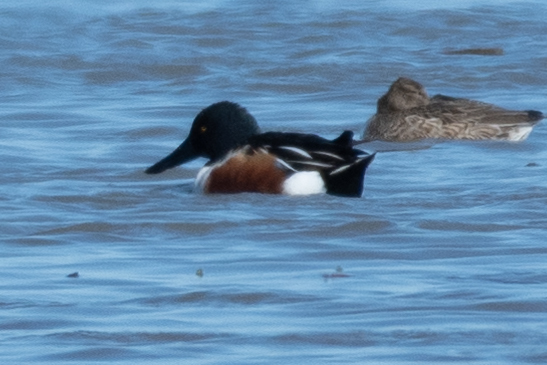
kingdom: Animalia
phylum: Chordata
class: Aves
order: Anseriformes
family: Anatidae
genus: Spatula
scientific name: Spatula clypeata
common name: Northern shoveler
